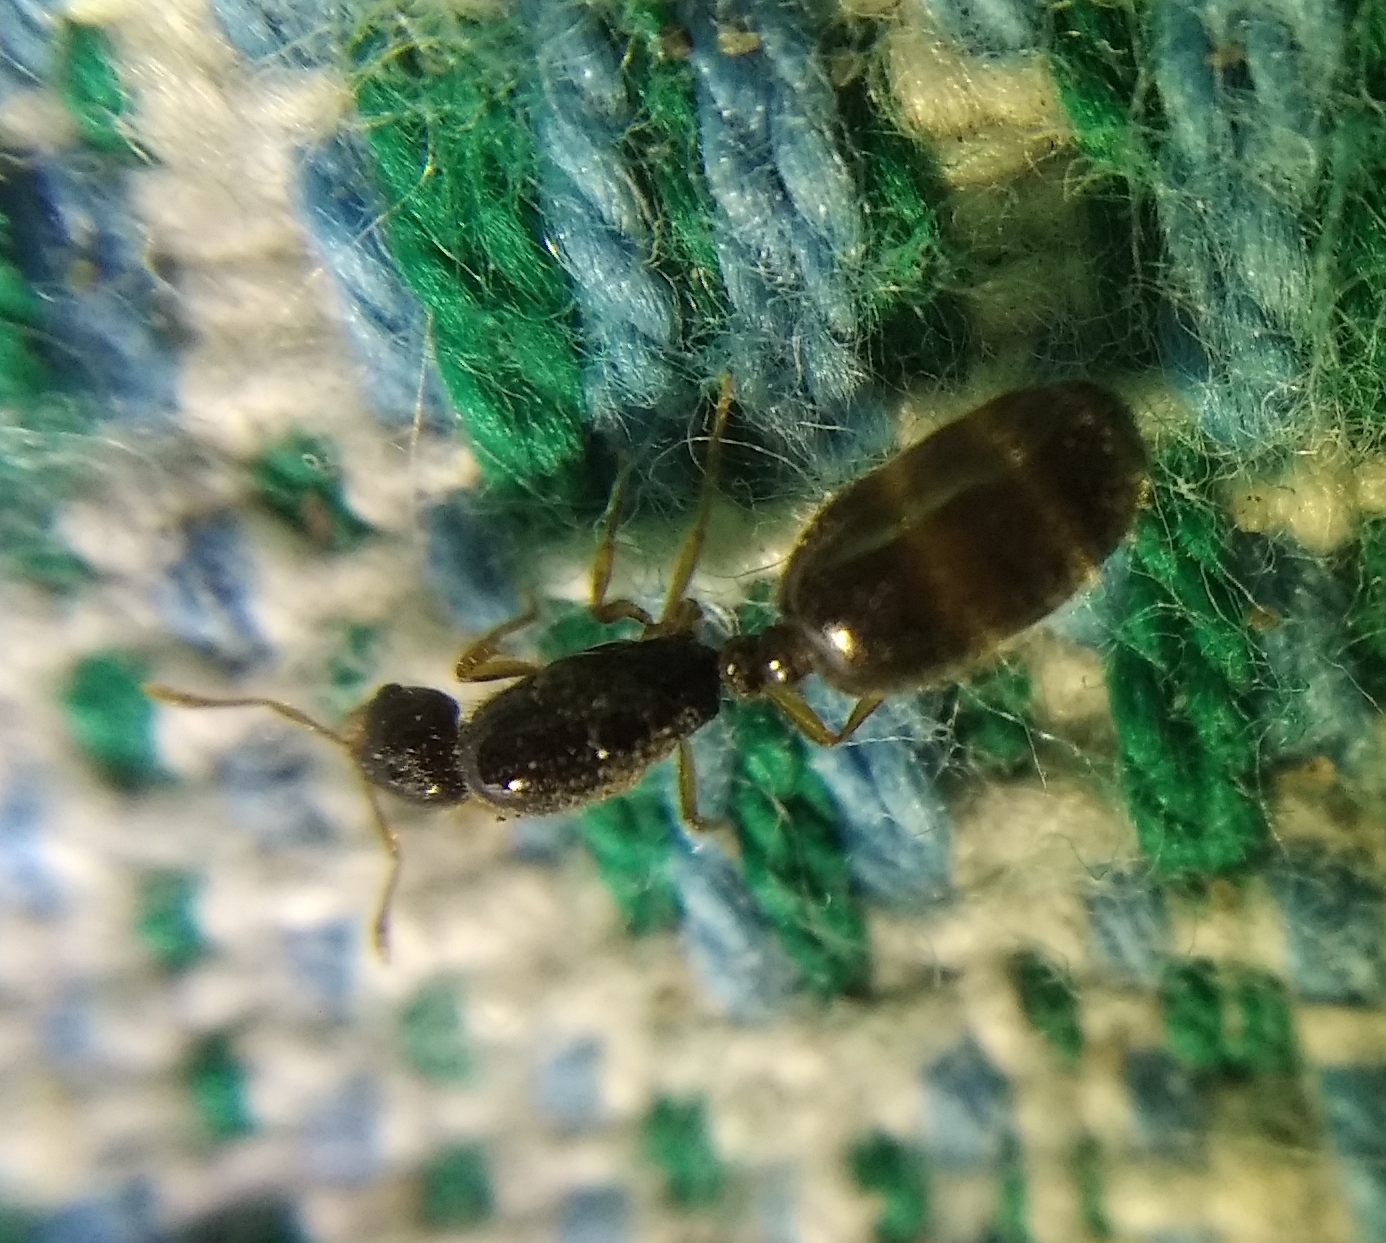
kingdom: Animalia
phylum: Arthropoda
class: Insecta
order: Hymenoptera
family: Formicidae
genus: Solenopsis
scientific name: Solenopsis fugax
